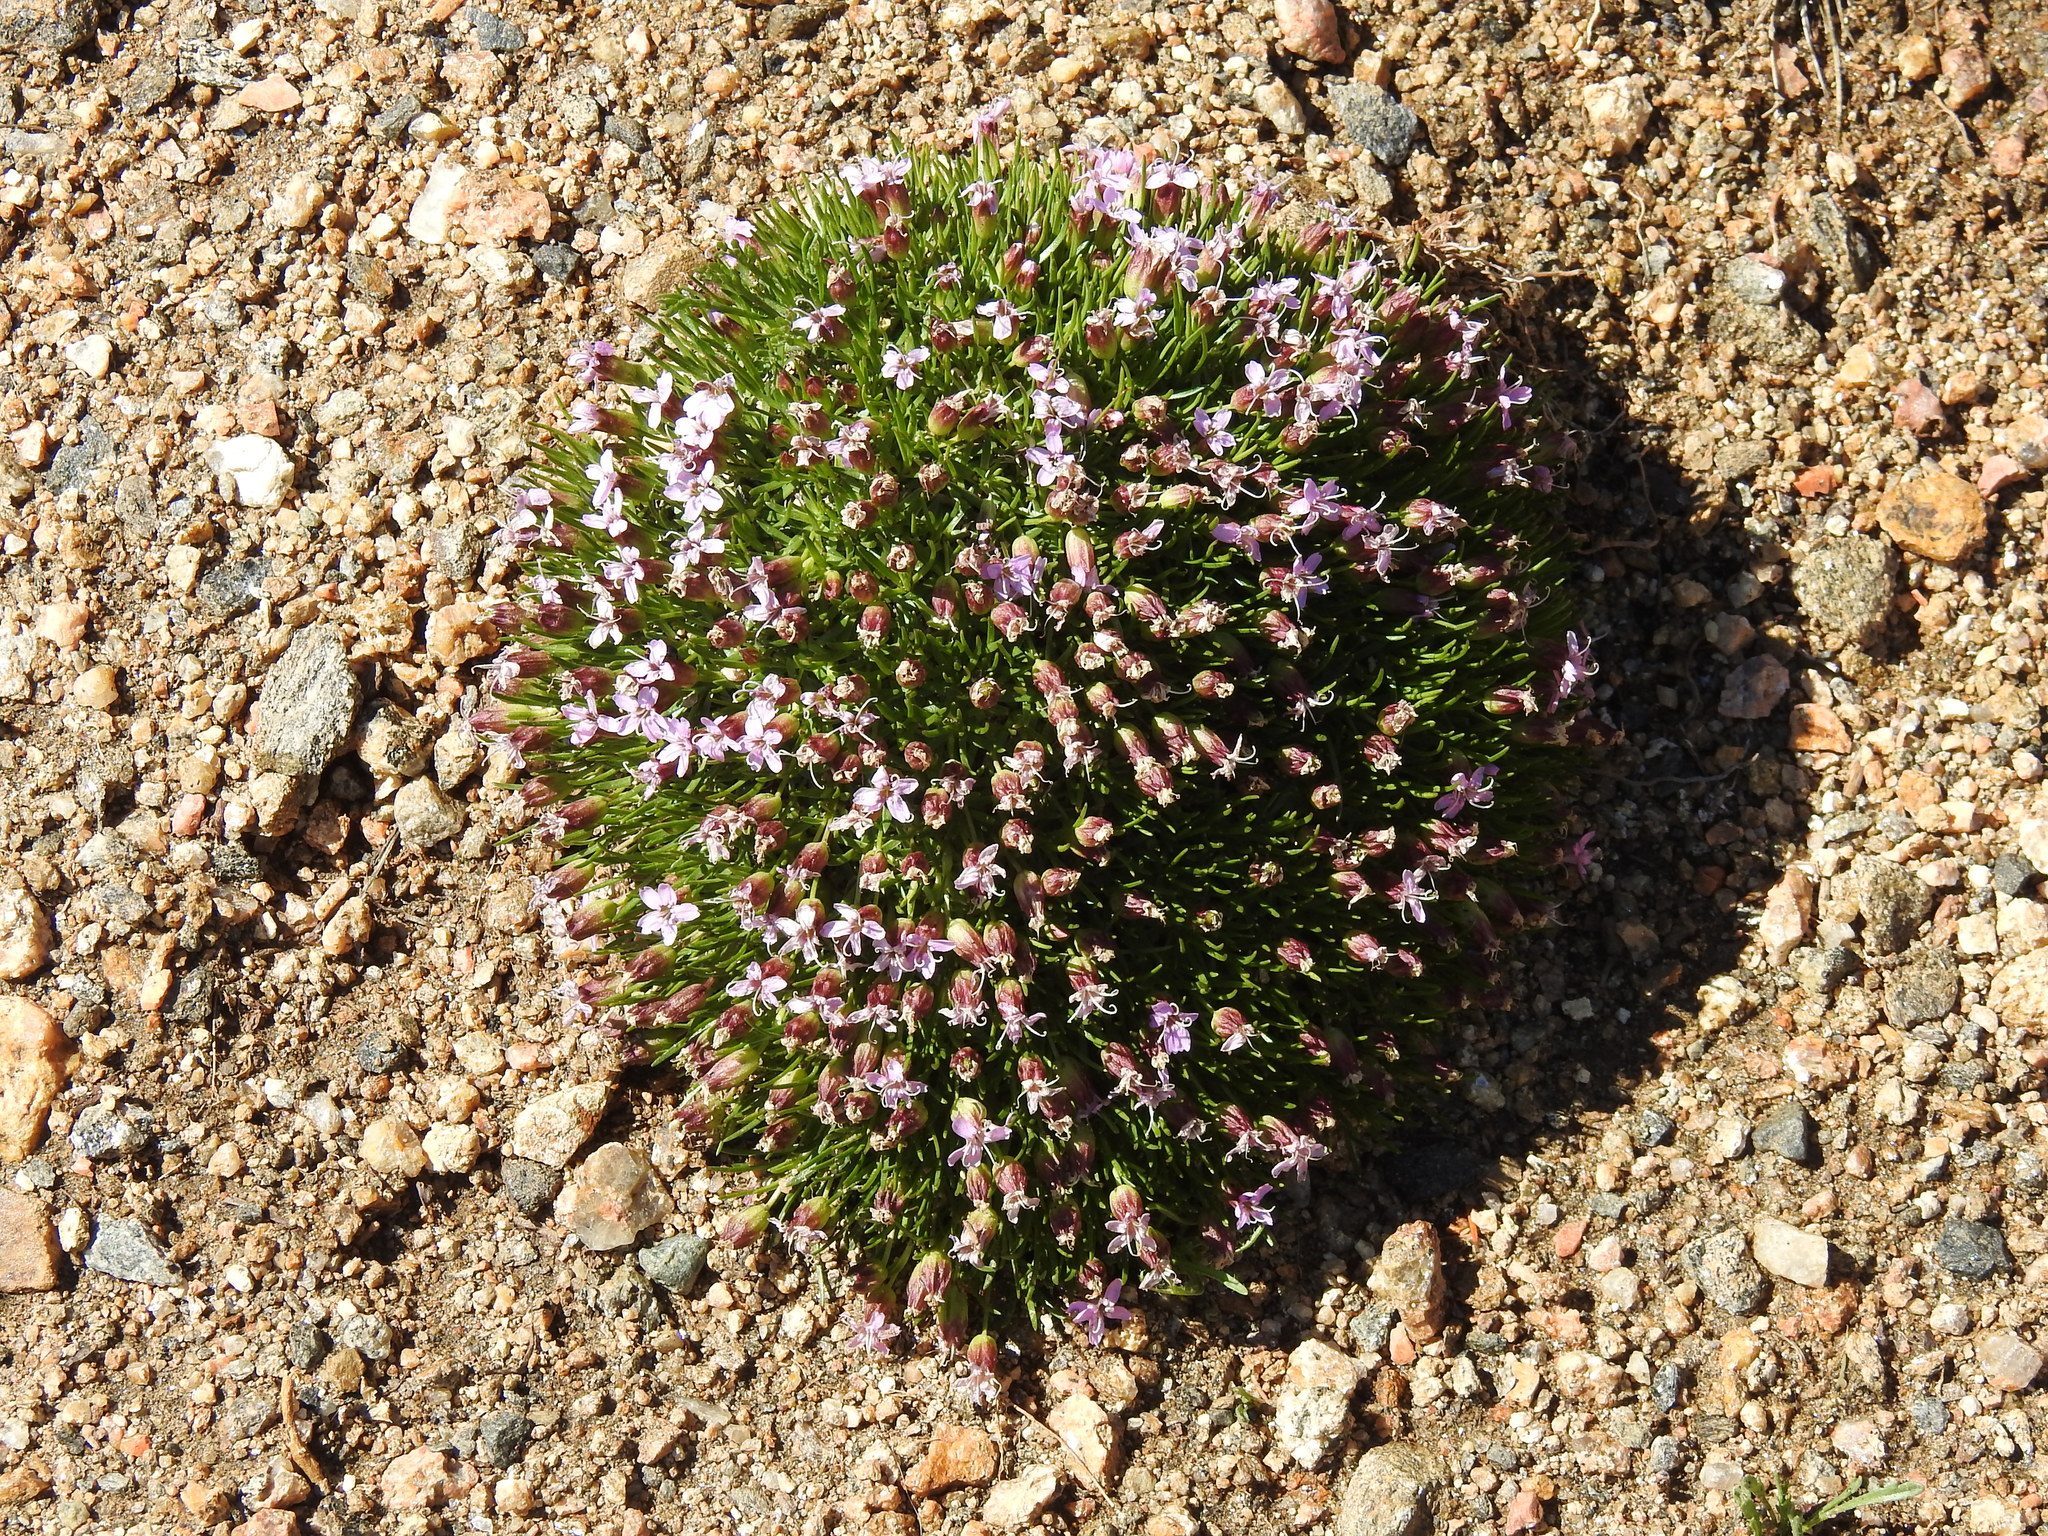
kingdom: Plantae
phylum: Tracheophyta
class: Magnoliopsida
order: Caryophyllales
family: Caryophyllaceae
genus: Silene
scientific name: Silene acaulis
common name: Moss campion
